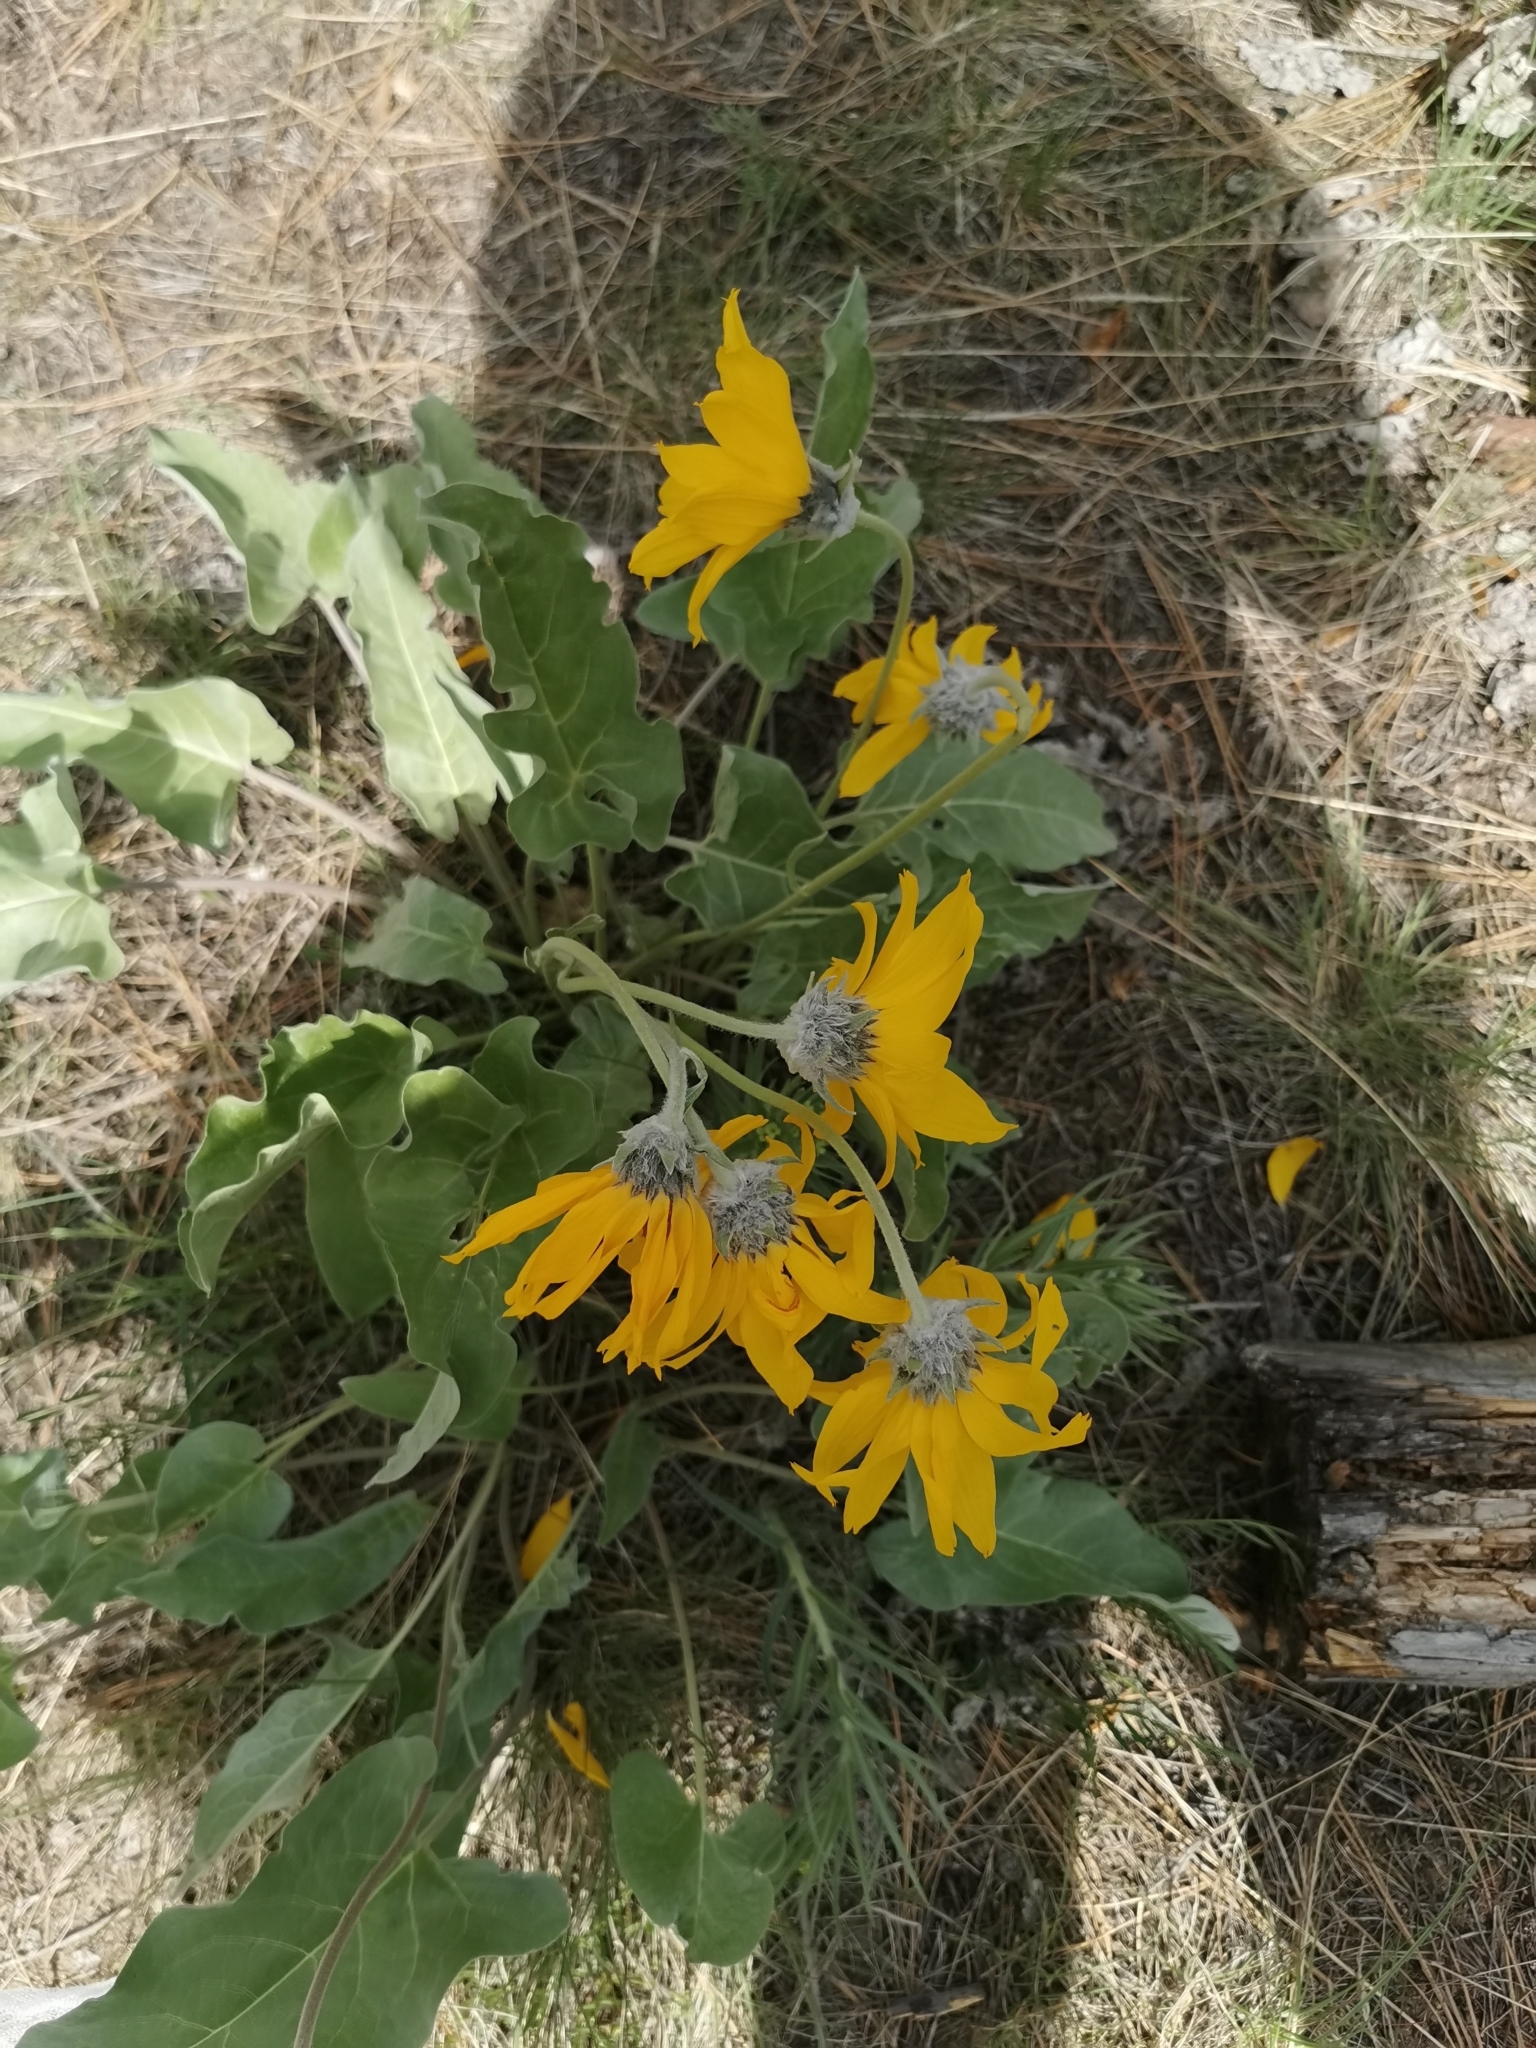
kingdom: Plantae
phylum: Tracheophyta
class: Magnoliopsida
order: Asterales
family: Asteraceae
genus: Wyethia
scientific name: Wyethia sagittata
